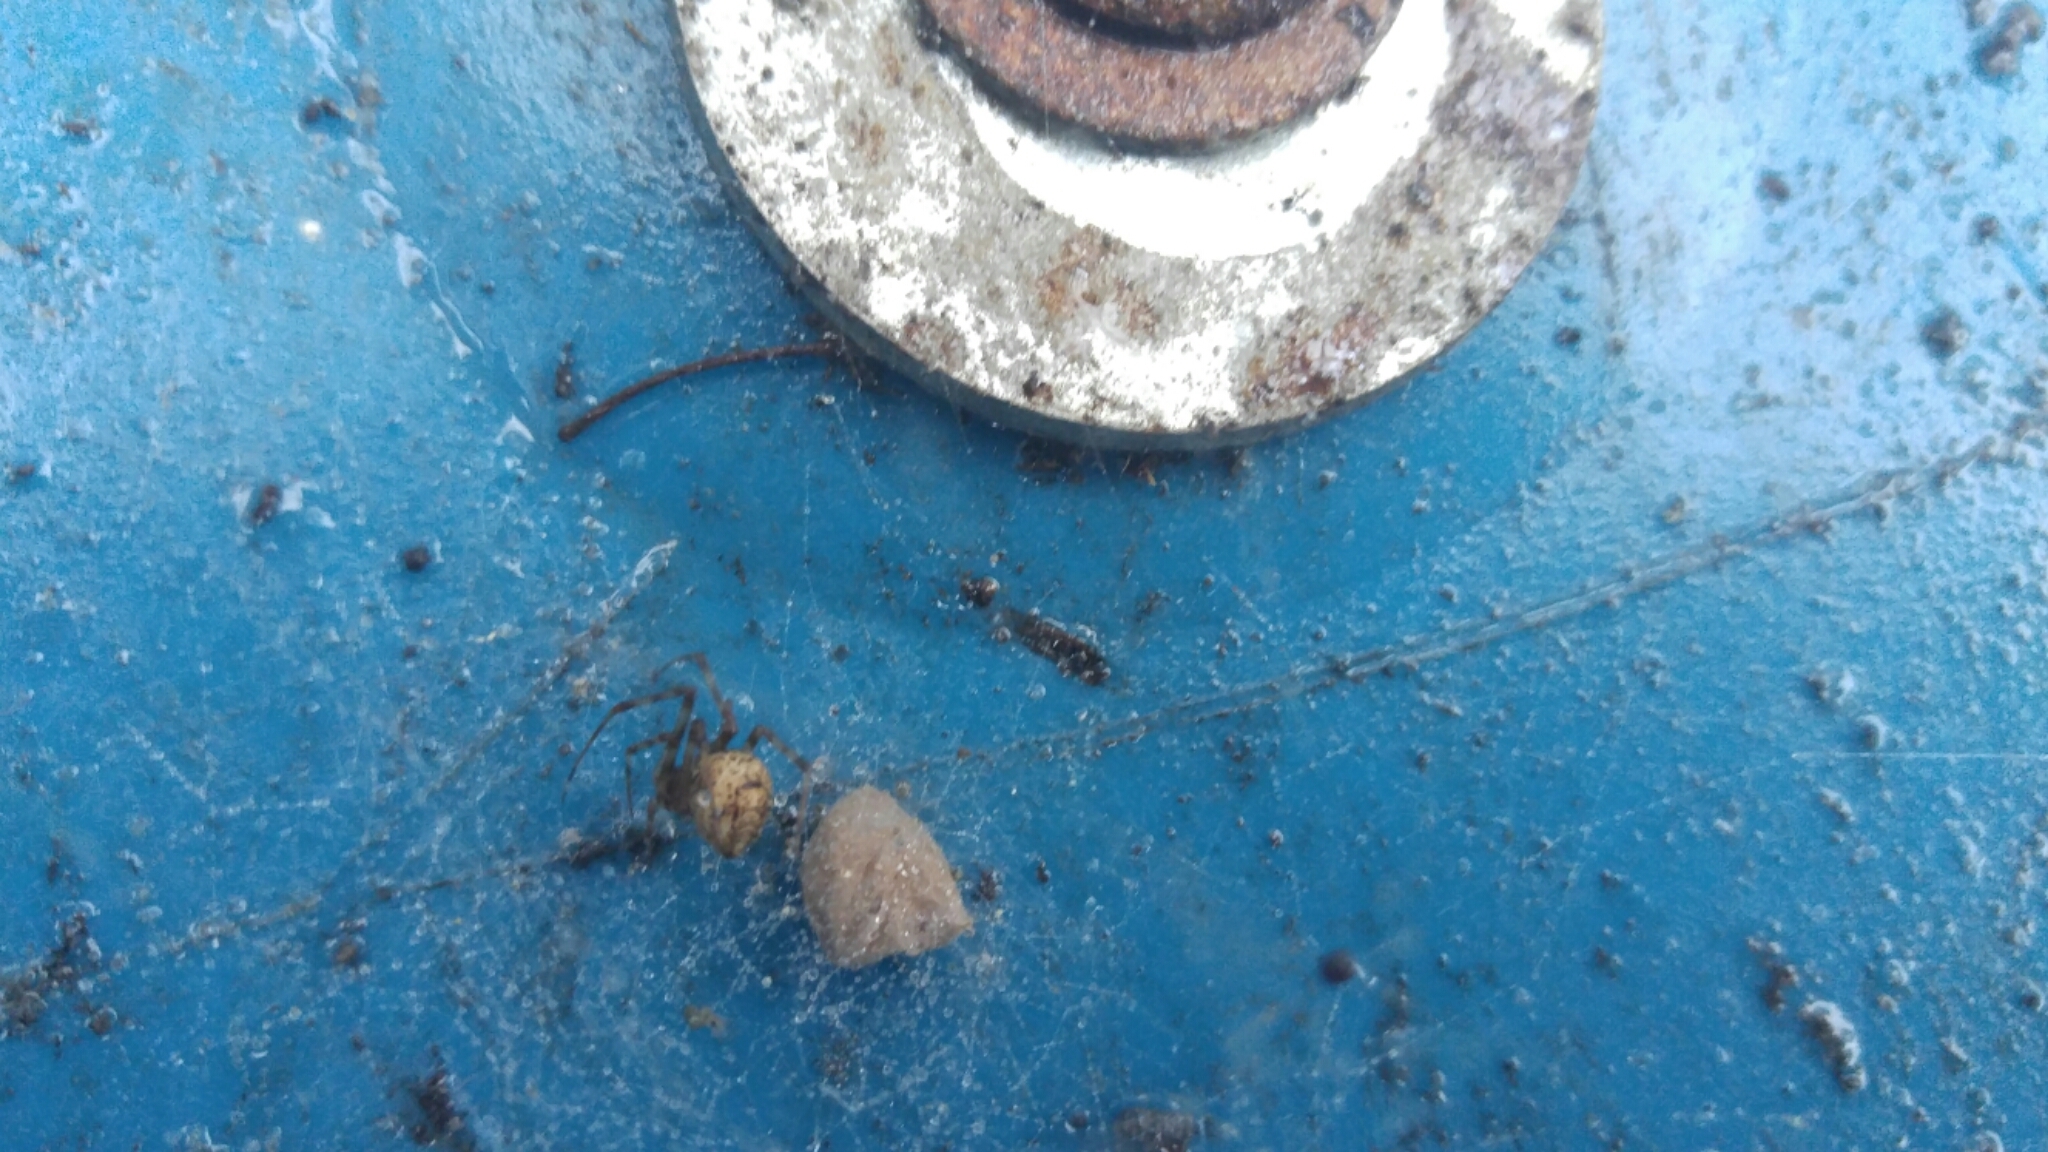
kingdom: Animalia
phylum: Arthropoda
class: Arachnida
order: Araneae
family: Theridiidae
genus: Parasteatoda
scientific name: Parasteatoda tepidariorum
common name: Common house spider
